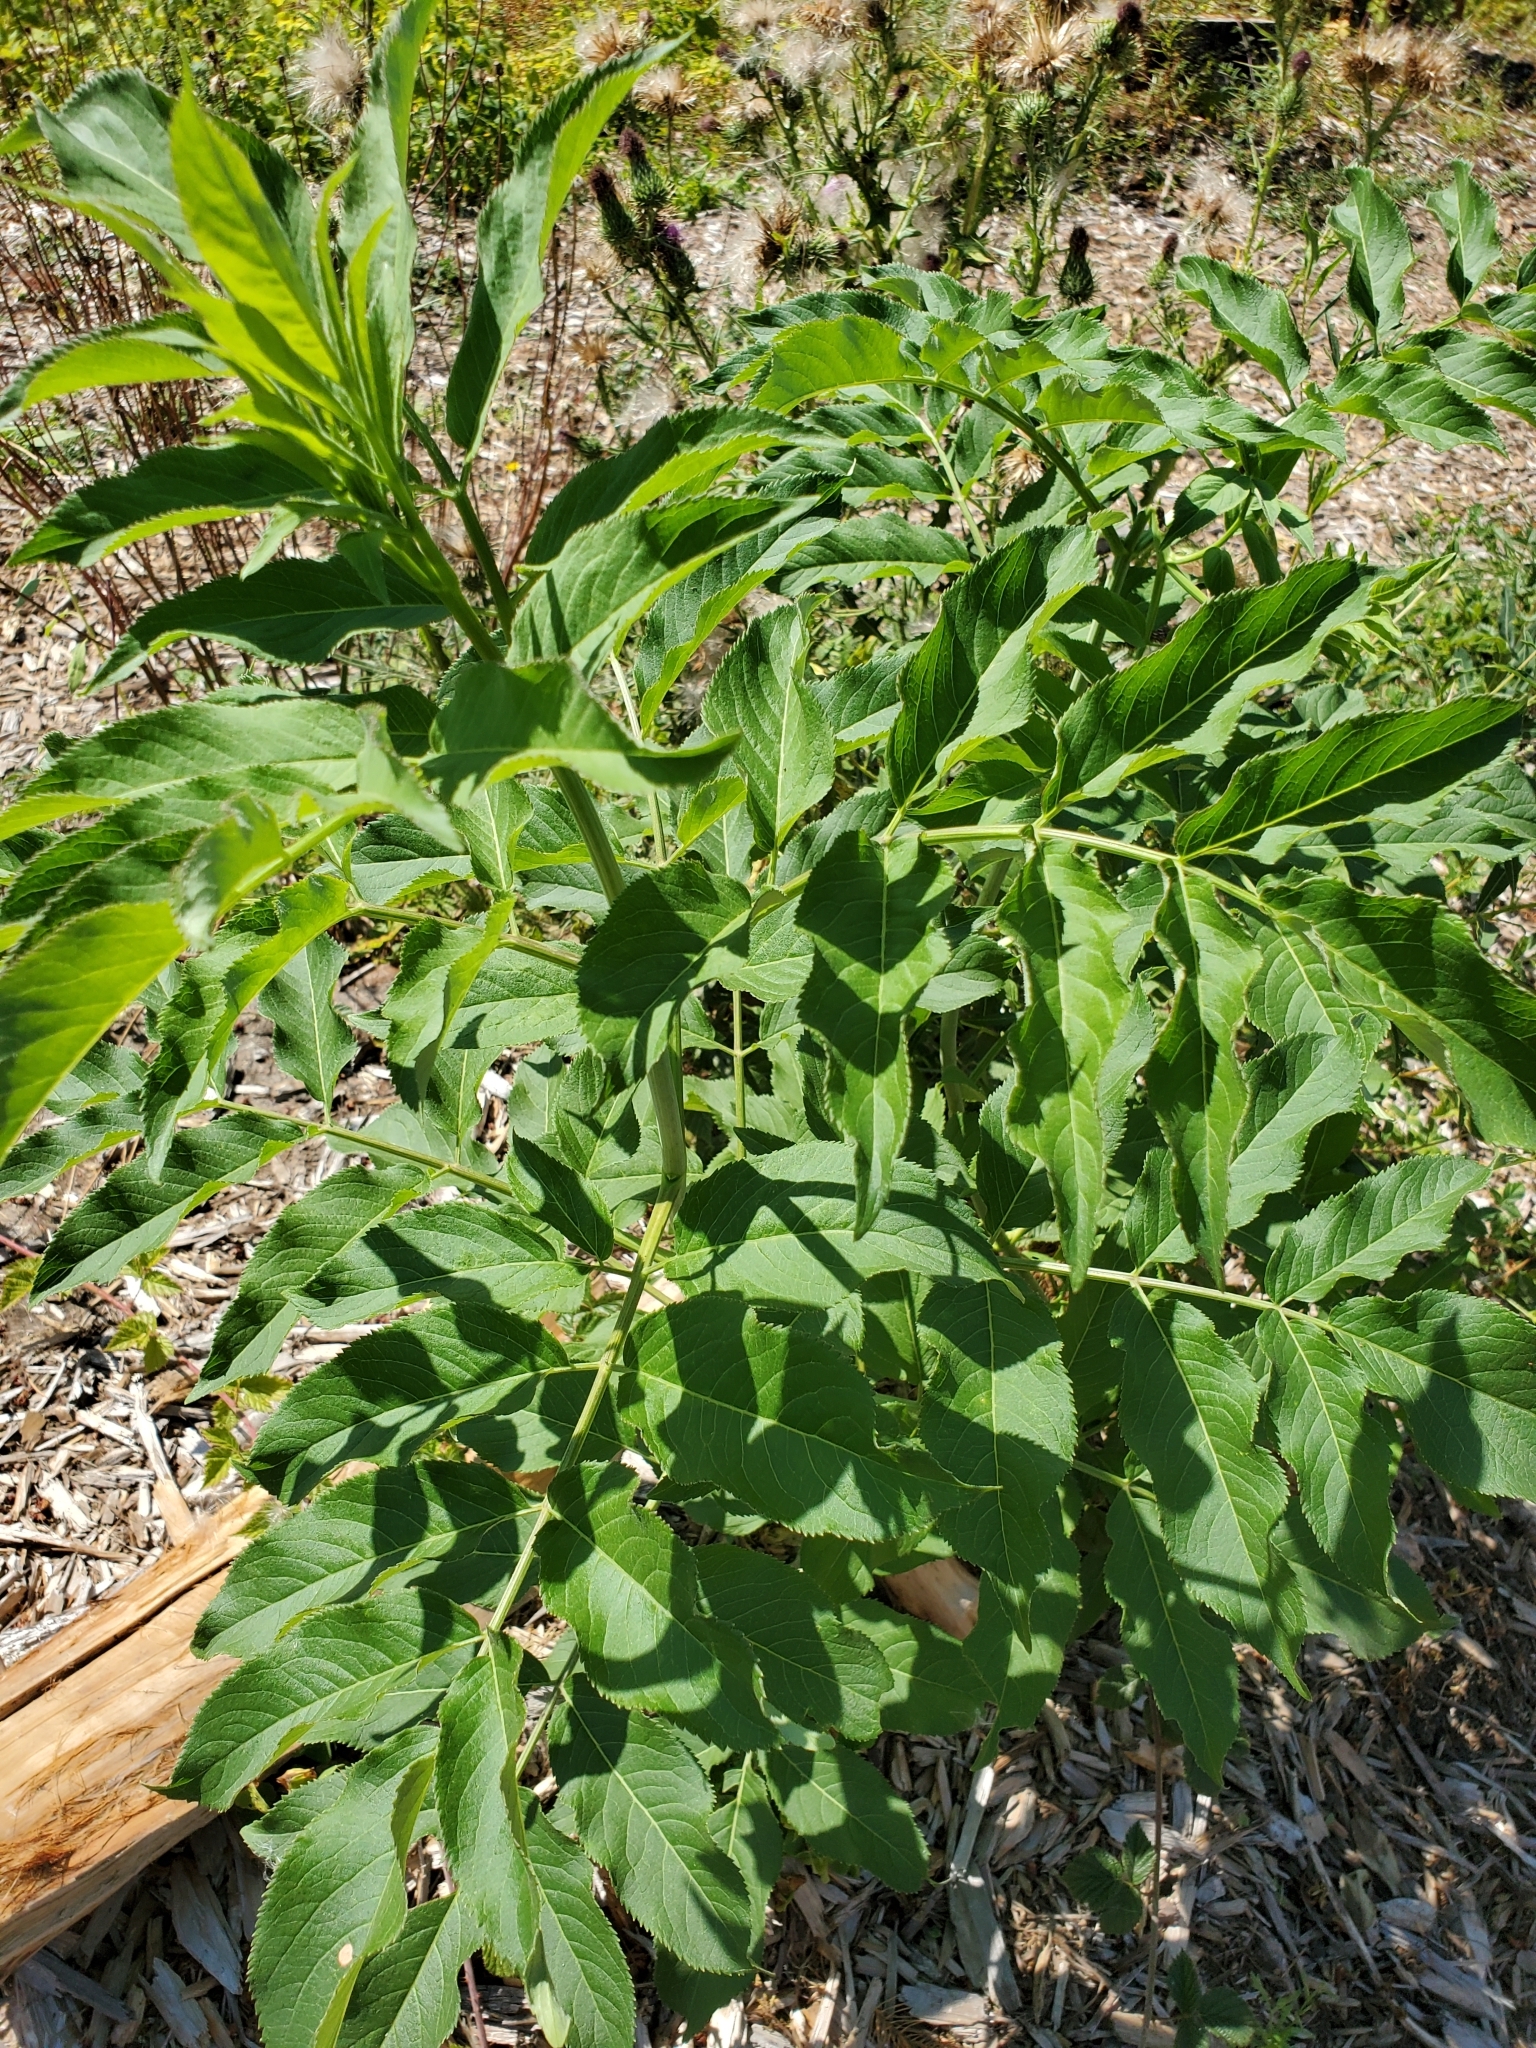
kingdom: Plantae
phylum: Tracheophyta
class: Magnoliopsida
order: Dipsacales
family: Viburnaceae
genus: Sambucus
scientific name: Sambucus cerulea
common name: Blue elder
